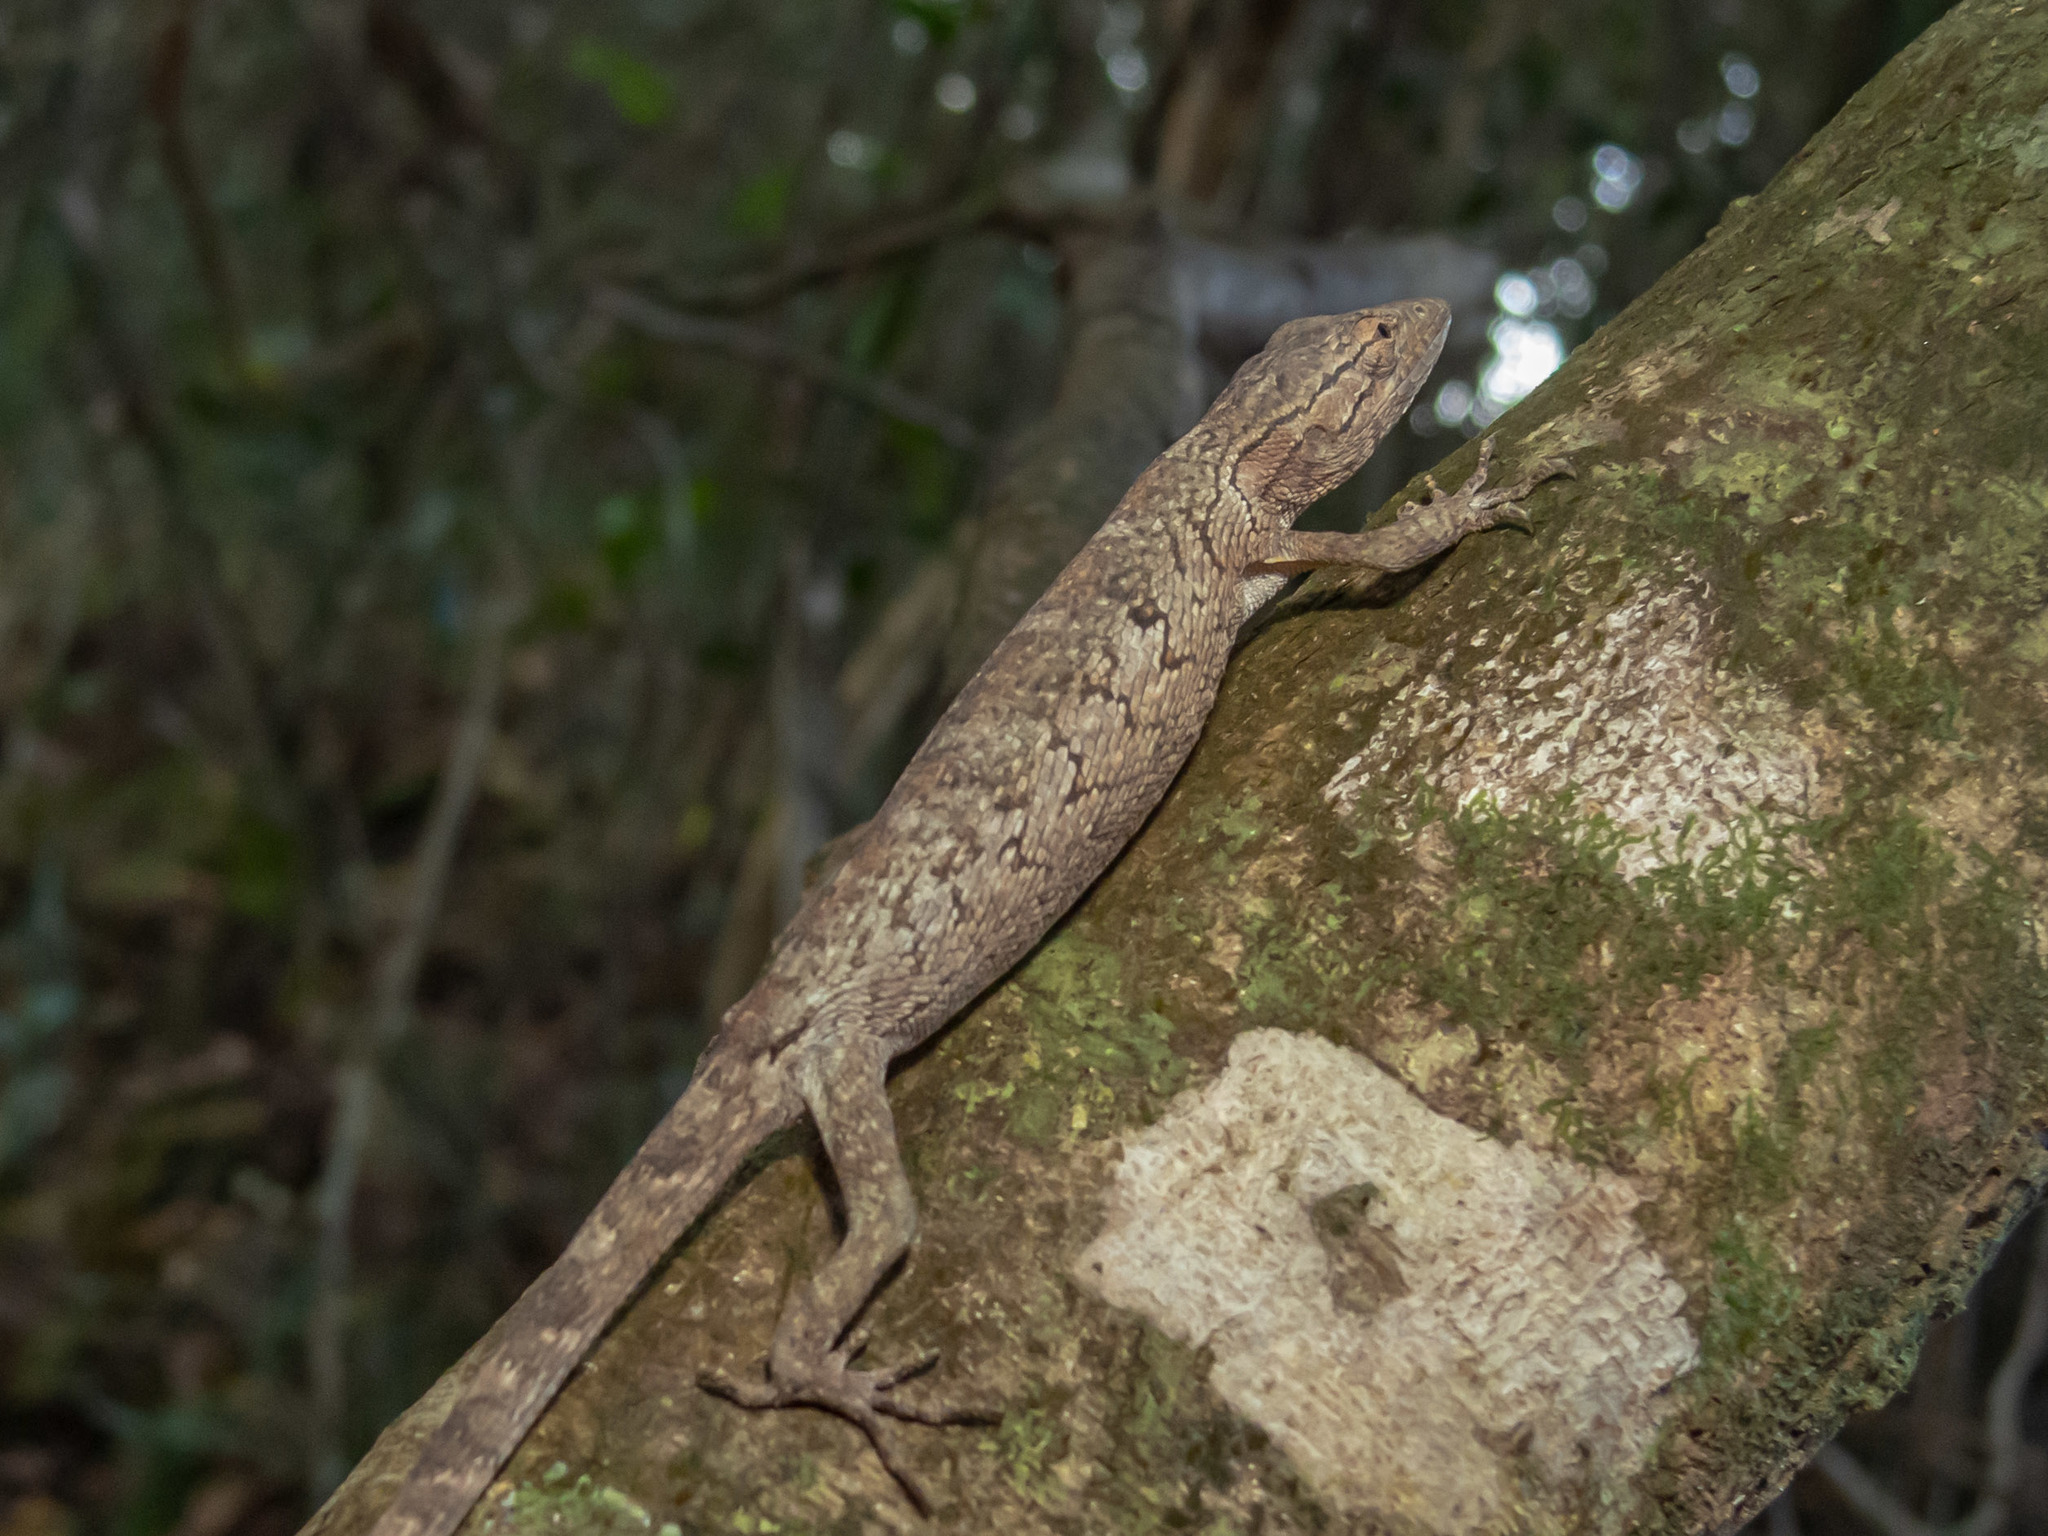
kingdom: Animalia
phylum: Chordata
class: Squamata
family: Polychrotidae
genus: Polychrus
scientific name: Polychrus acutirostris
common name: Brazilian bush anole
